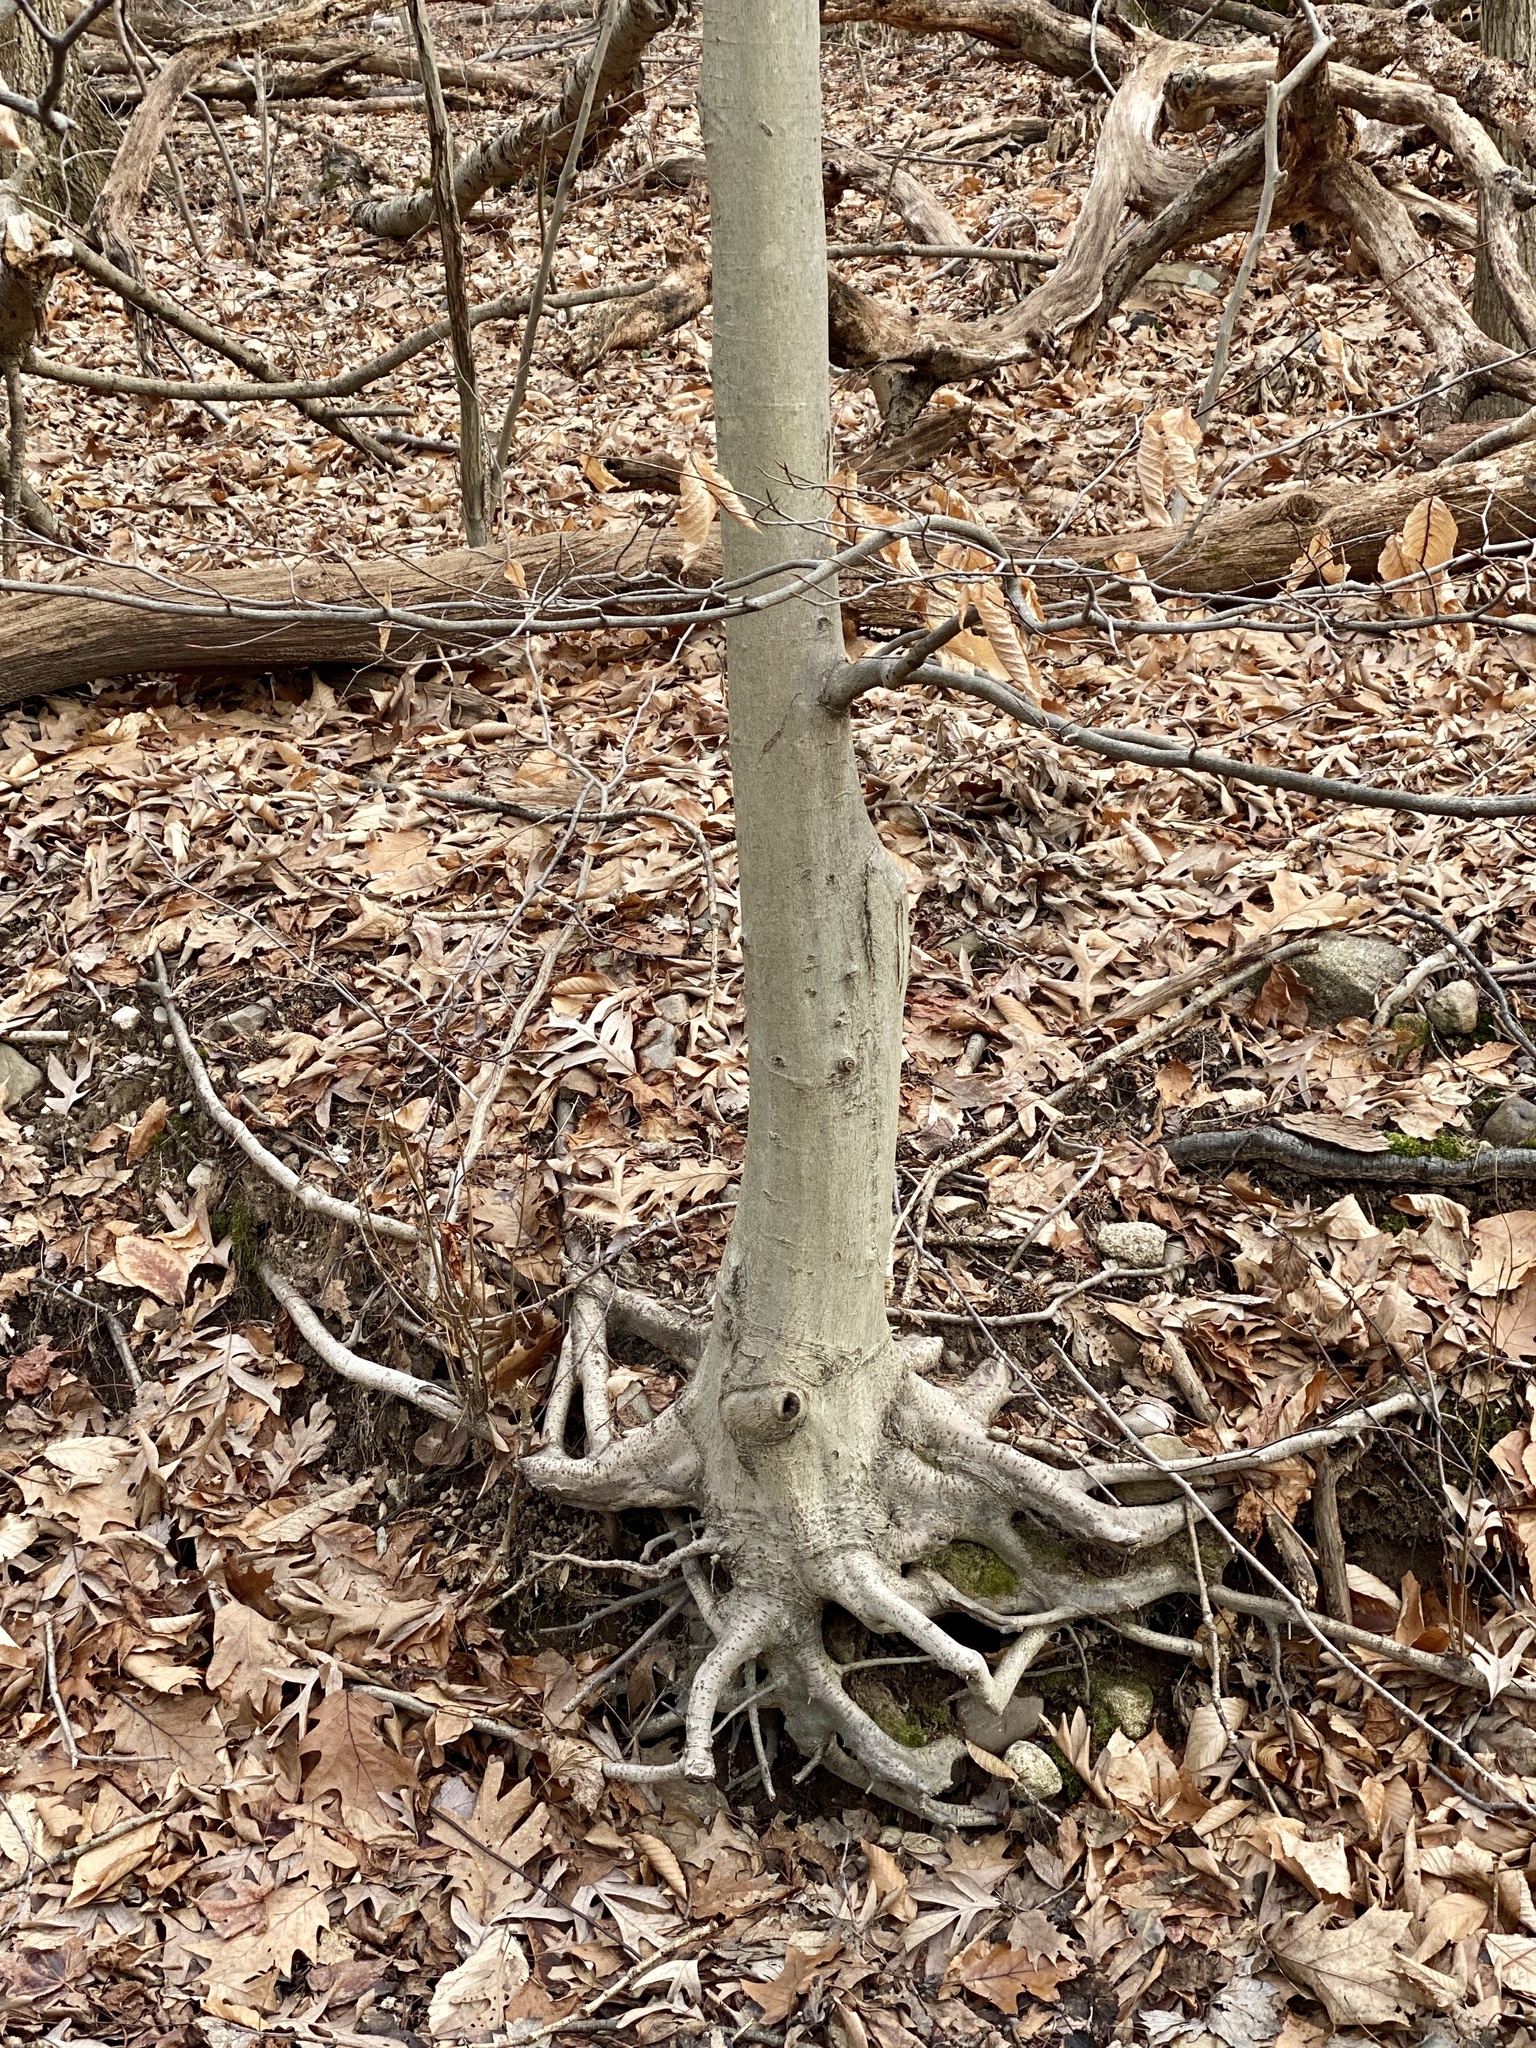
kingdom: Plantae
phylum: Tracheophyta
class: Magnoliopsida
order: Fagales
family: Fagaceae
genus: Fagus
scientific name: Fagus grandifolia
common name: American beech
